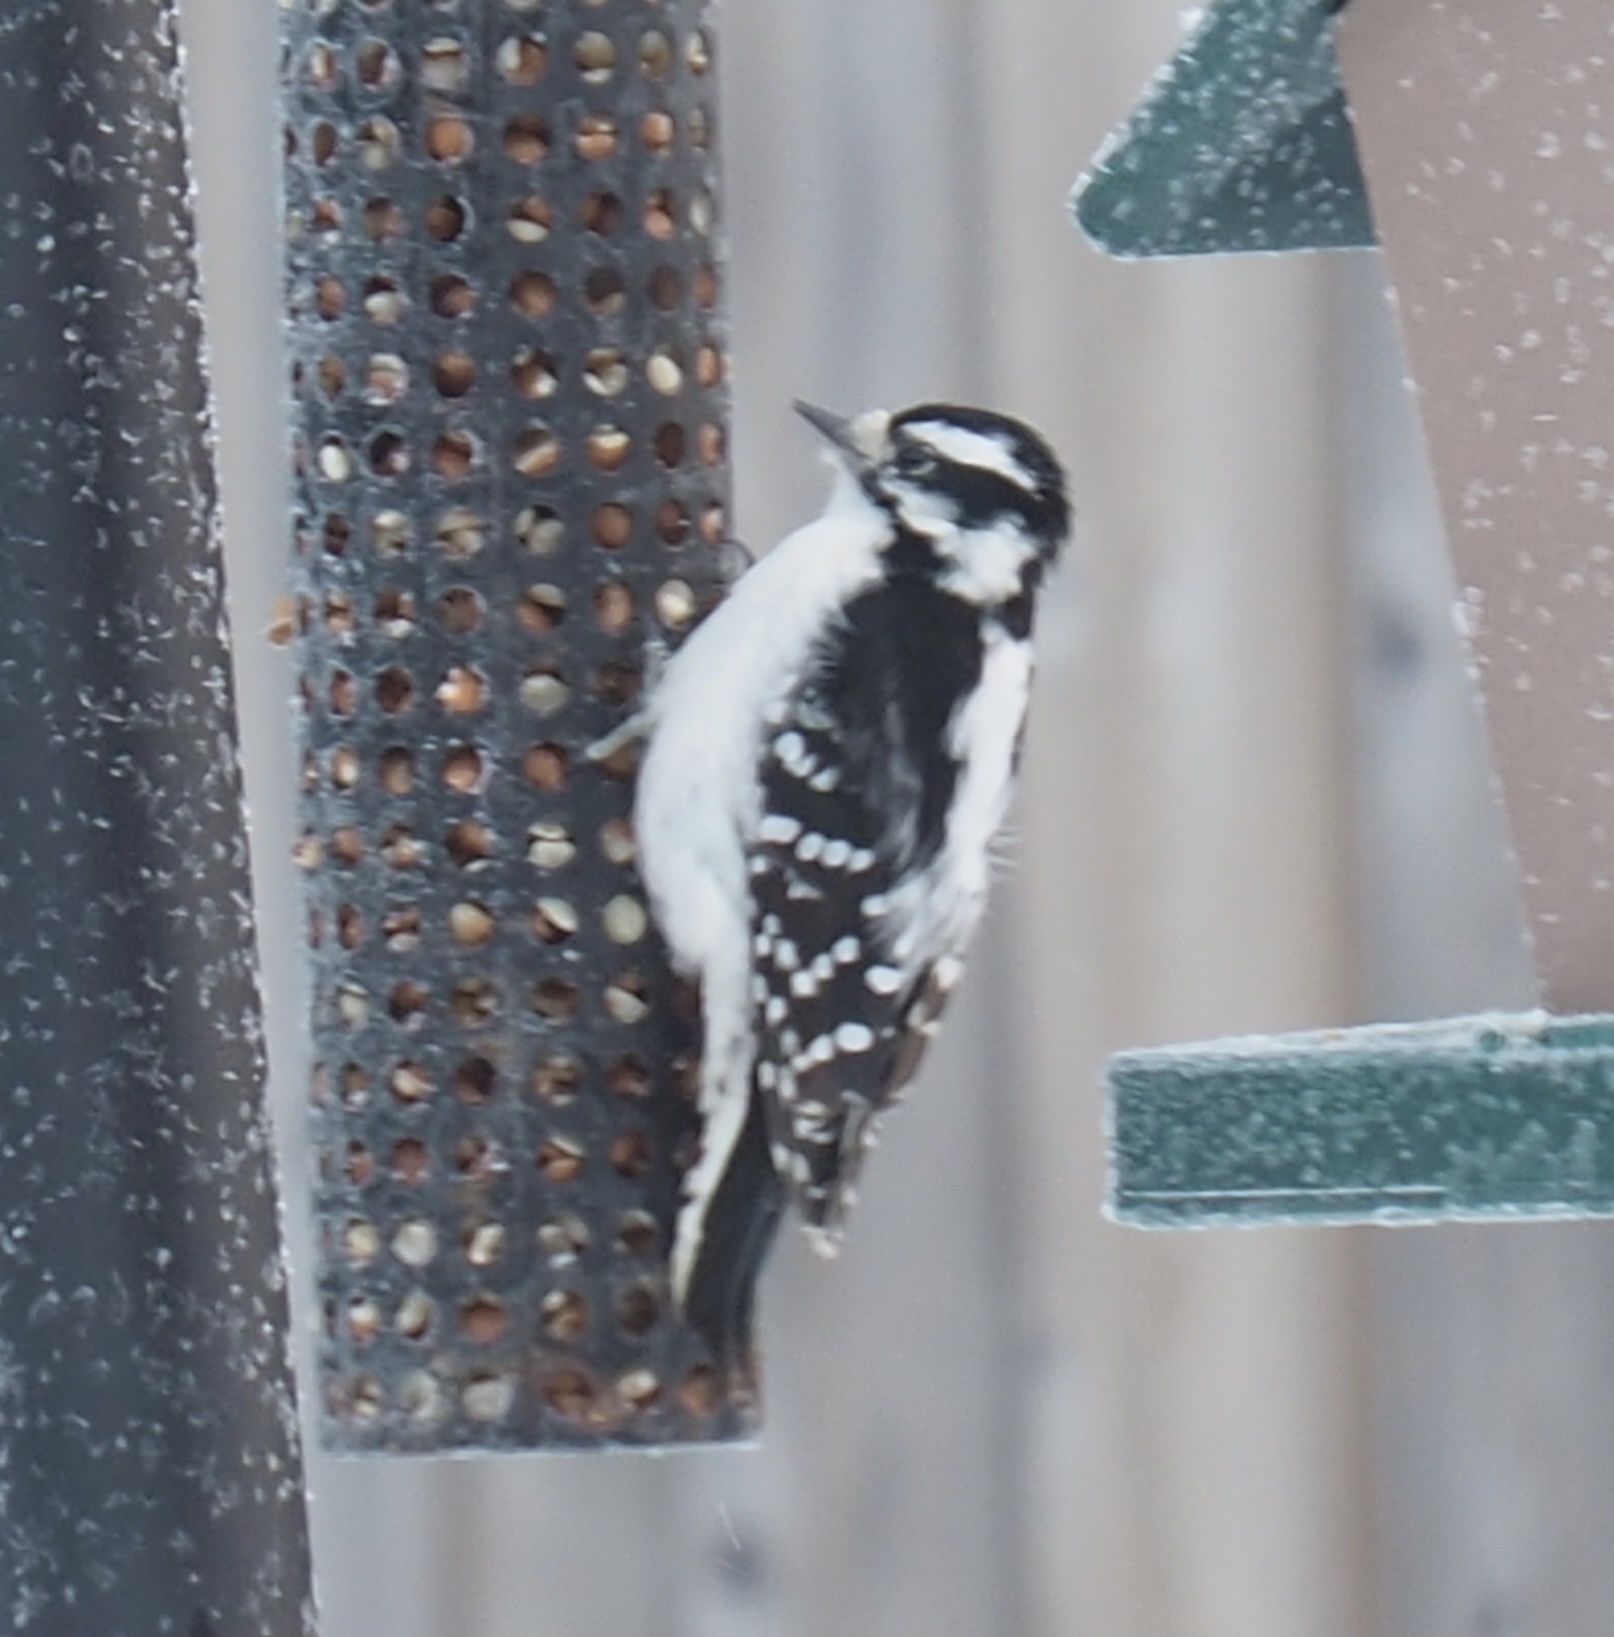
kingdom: Animalia
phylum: Chordata
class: Aves
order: Piciformes
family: Picidae
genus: Dryobates
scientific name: Dryobates pubescens
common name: Downy woodpecker
